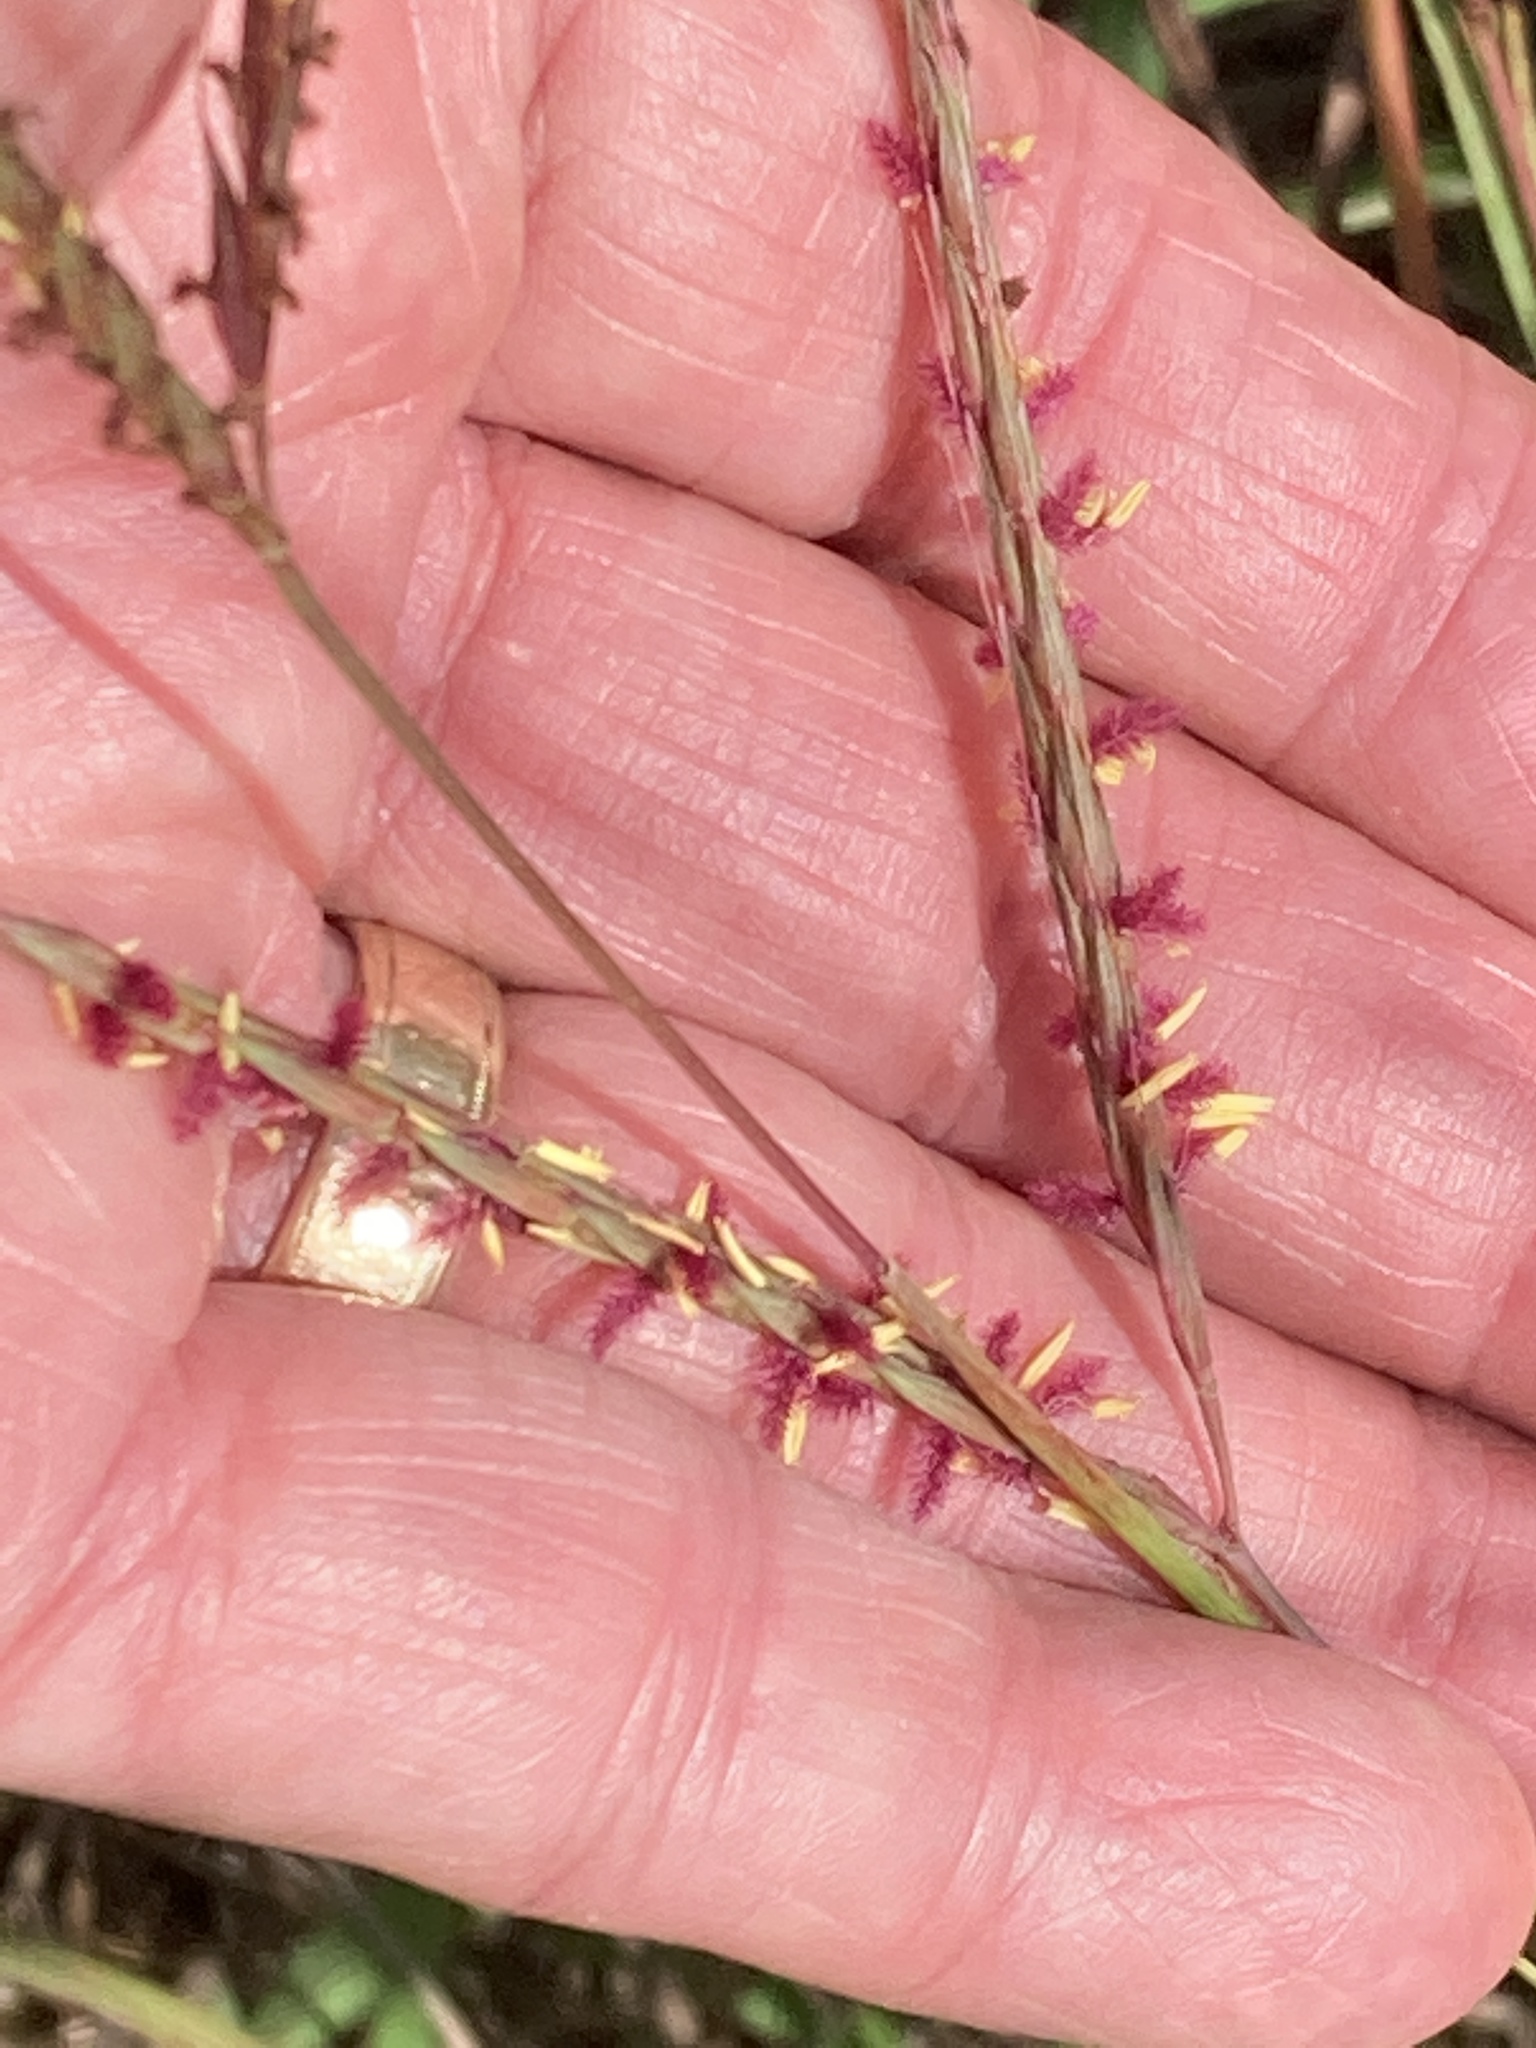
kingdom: Plantae
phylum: Tracheophyta
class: Liliopsida
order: Poales
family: Poaceae
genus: Andropogon
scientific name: Andropogon gerardi
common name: Big bluestem
